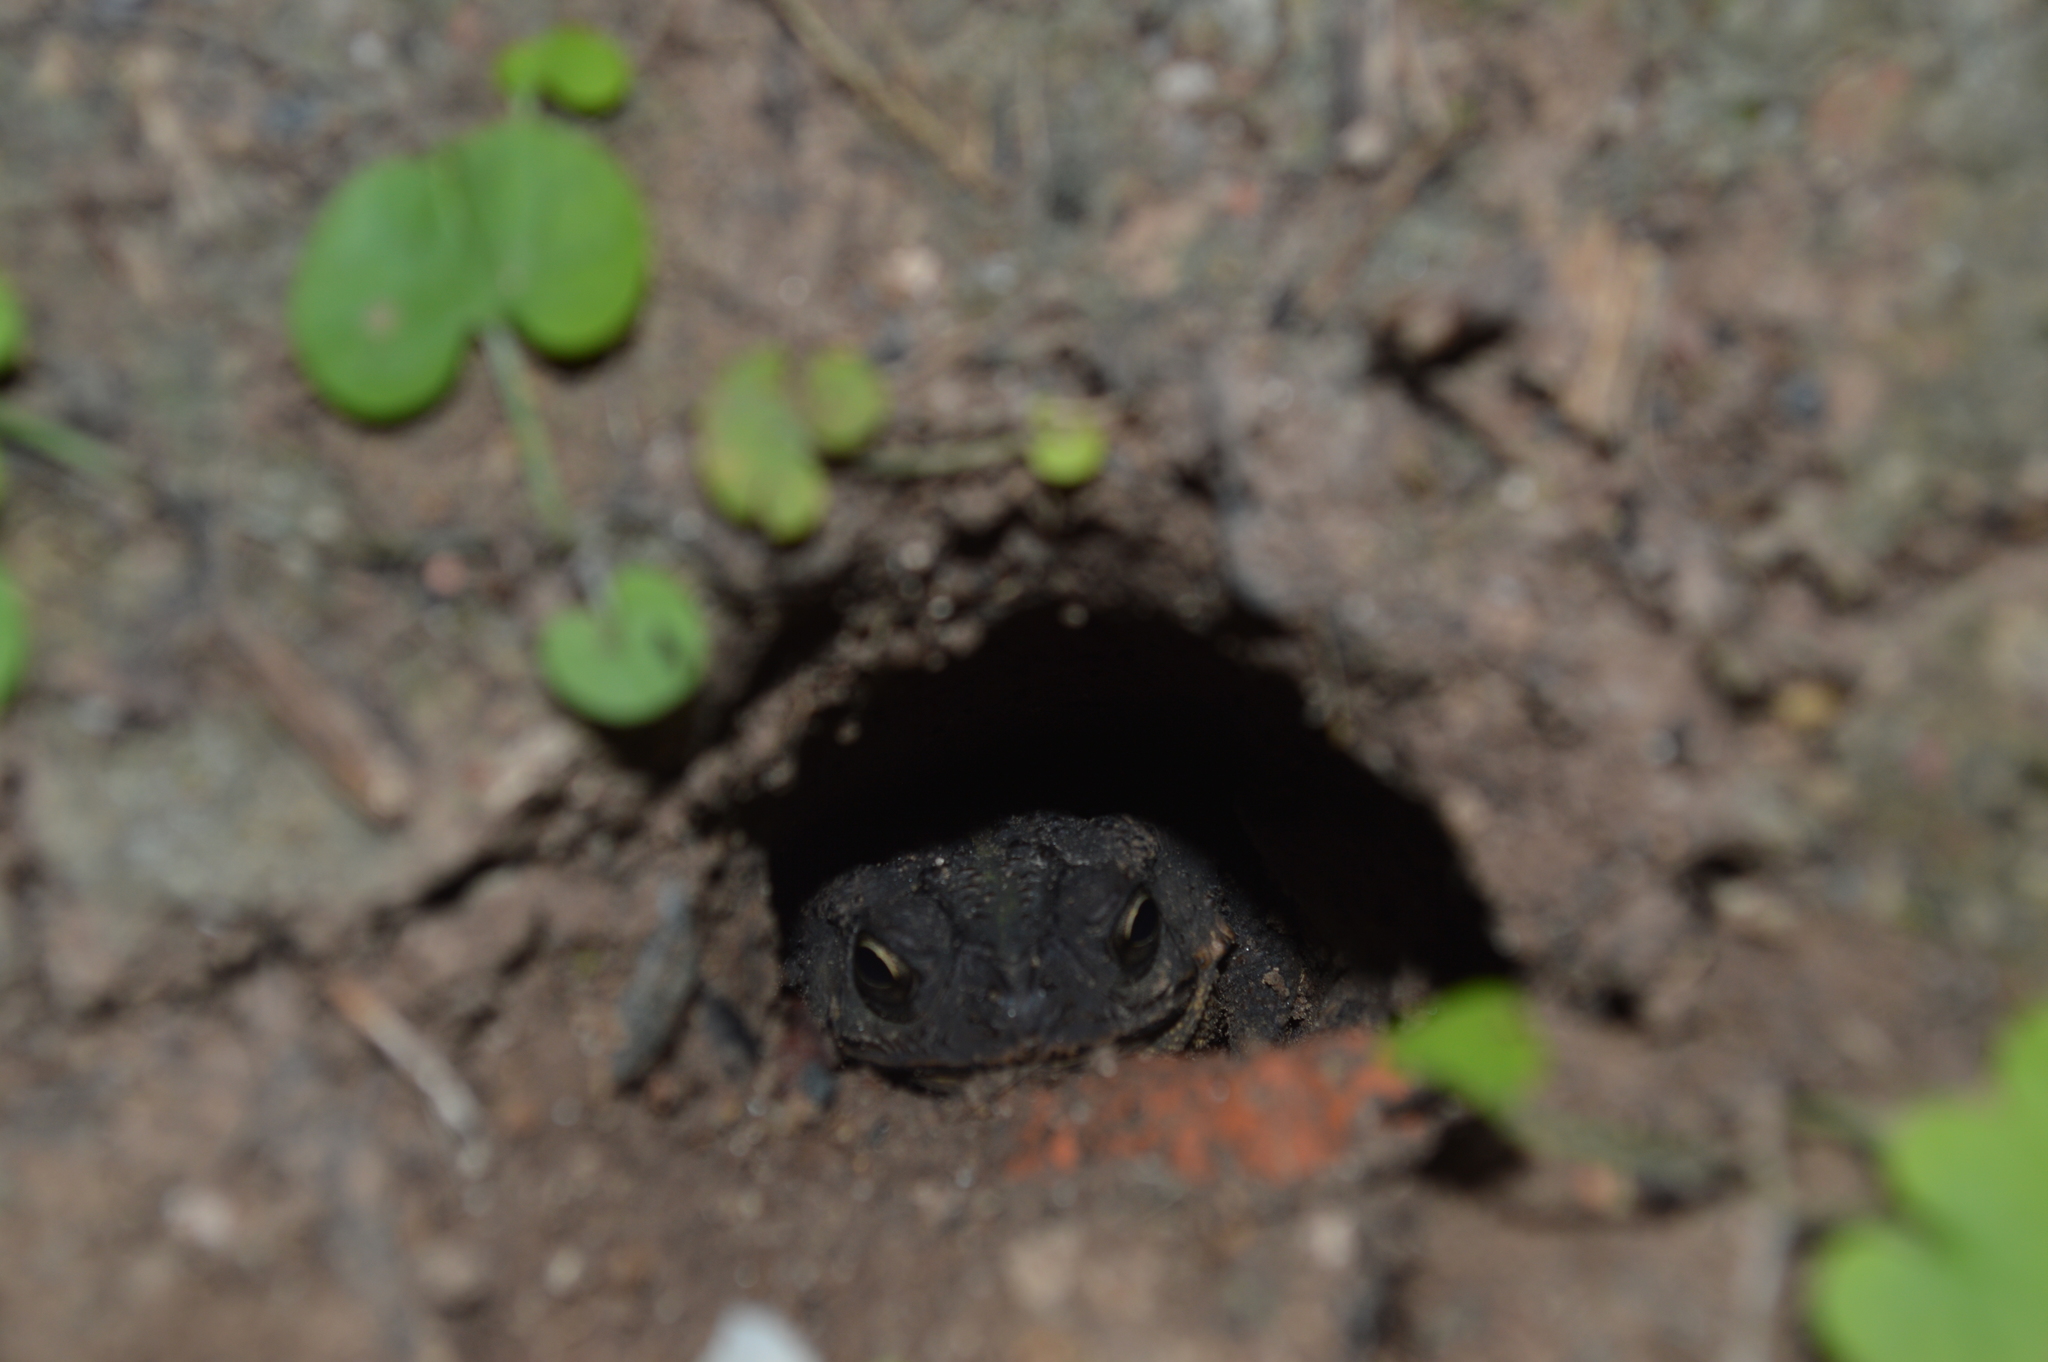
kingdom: Animalia
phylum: Chordata
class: Amphibia
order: Anura
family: Bufonidae
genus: Rhinella
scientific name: Rhinella dorbignyi
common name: D´orbigny’s toad
